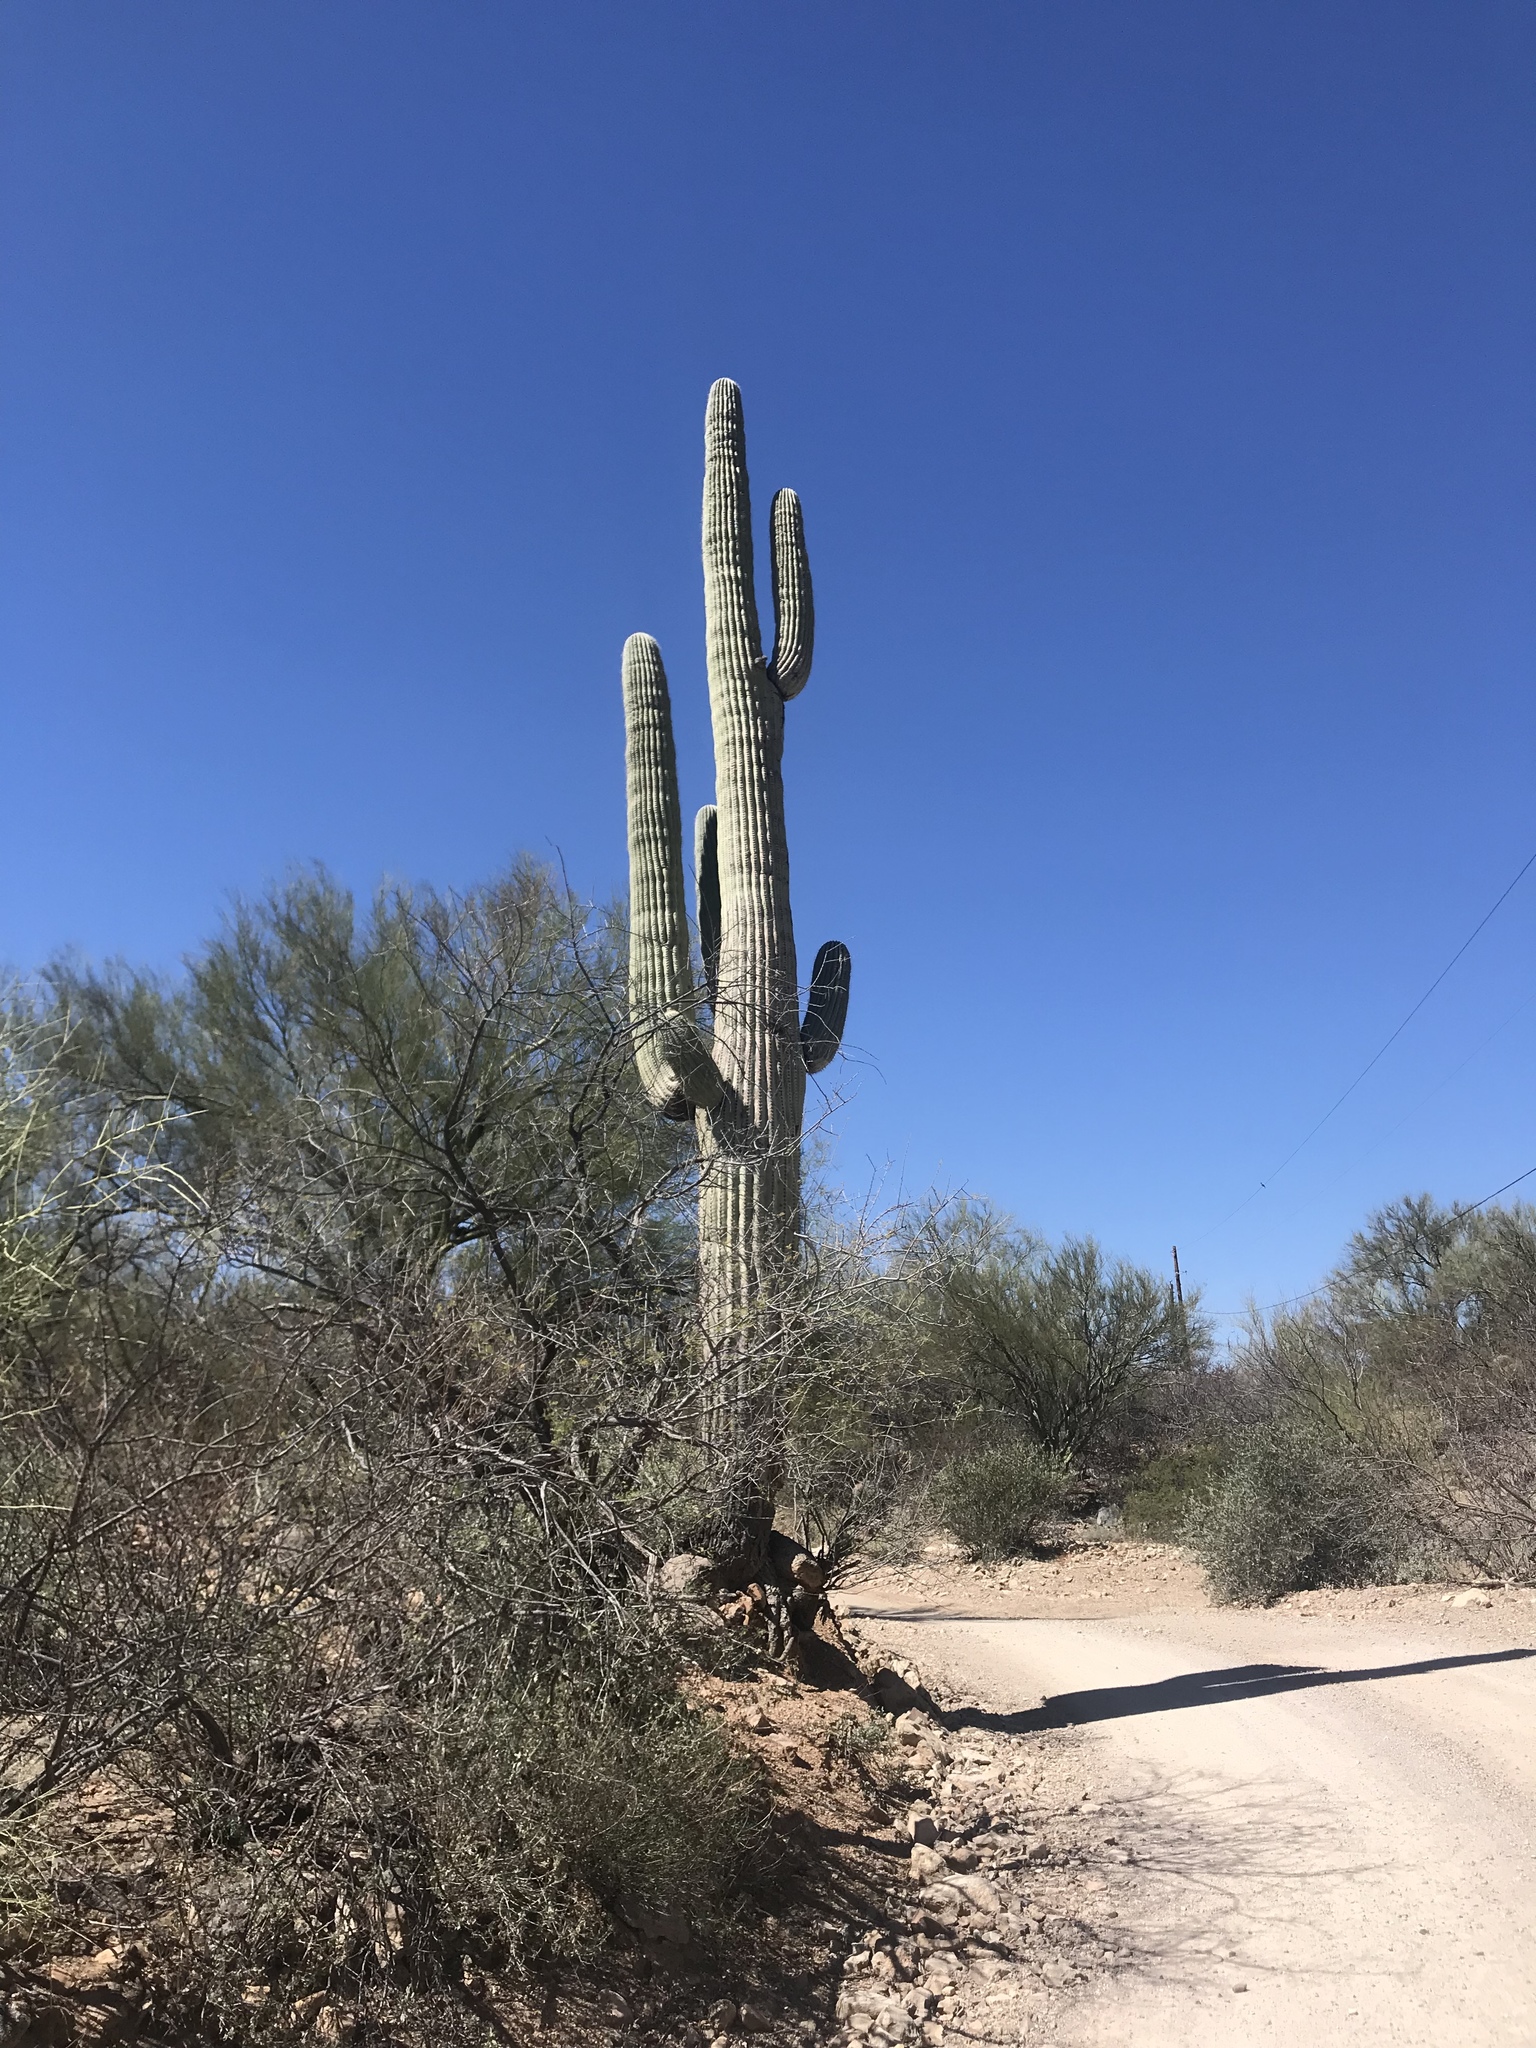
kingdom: Plantae
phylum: Tracheophyta
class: Magnoliopsida
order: Caryophyllales
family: Cactaceae
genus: Carnegiea
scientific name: Carnegiea gigantea
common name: Saguaro
